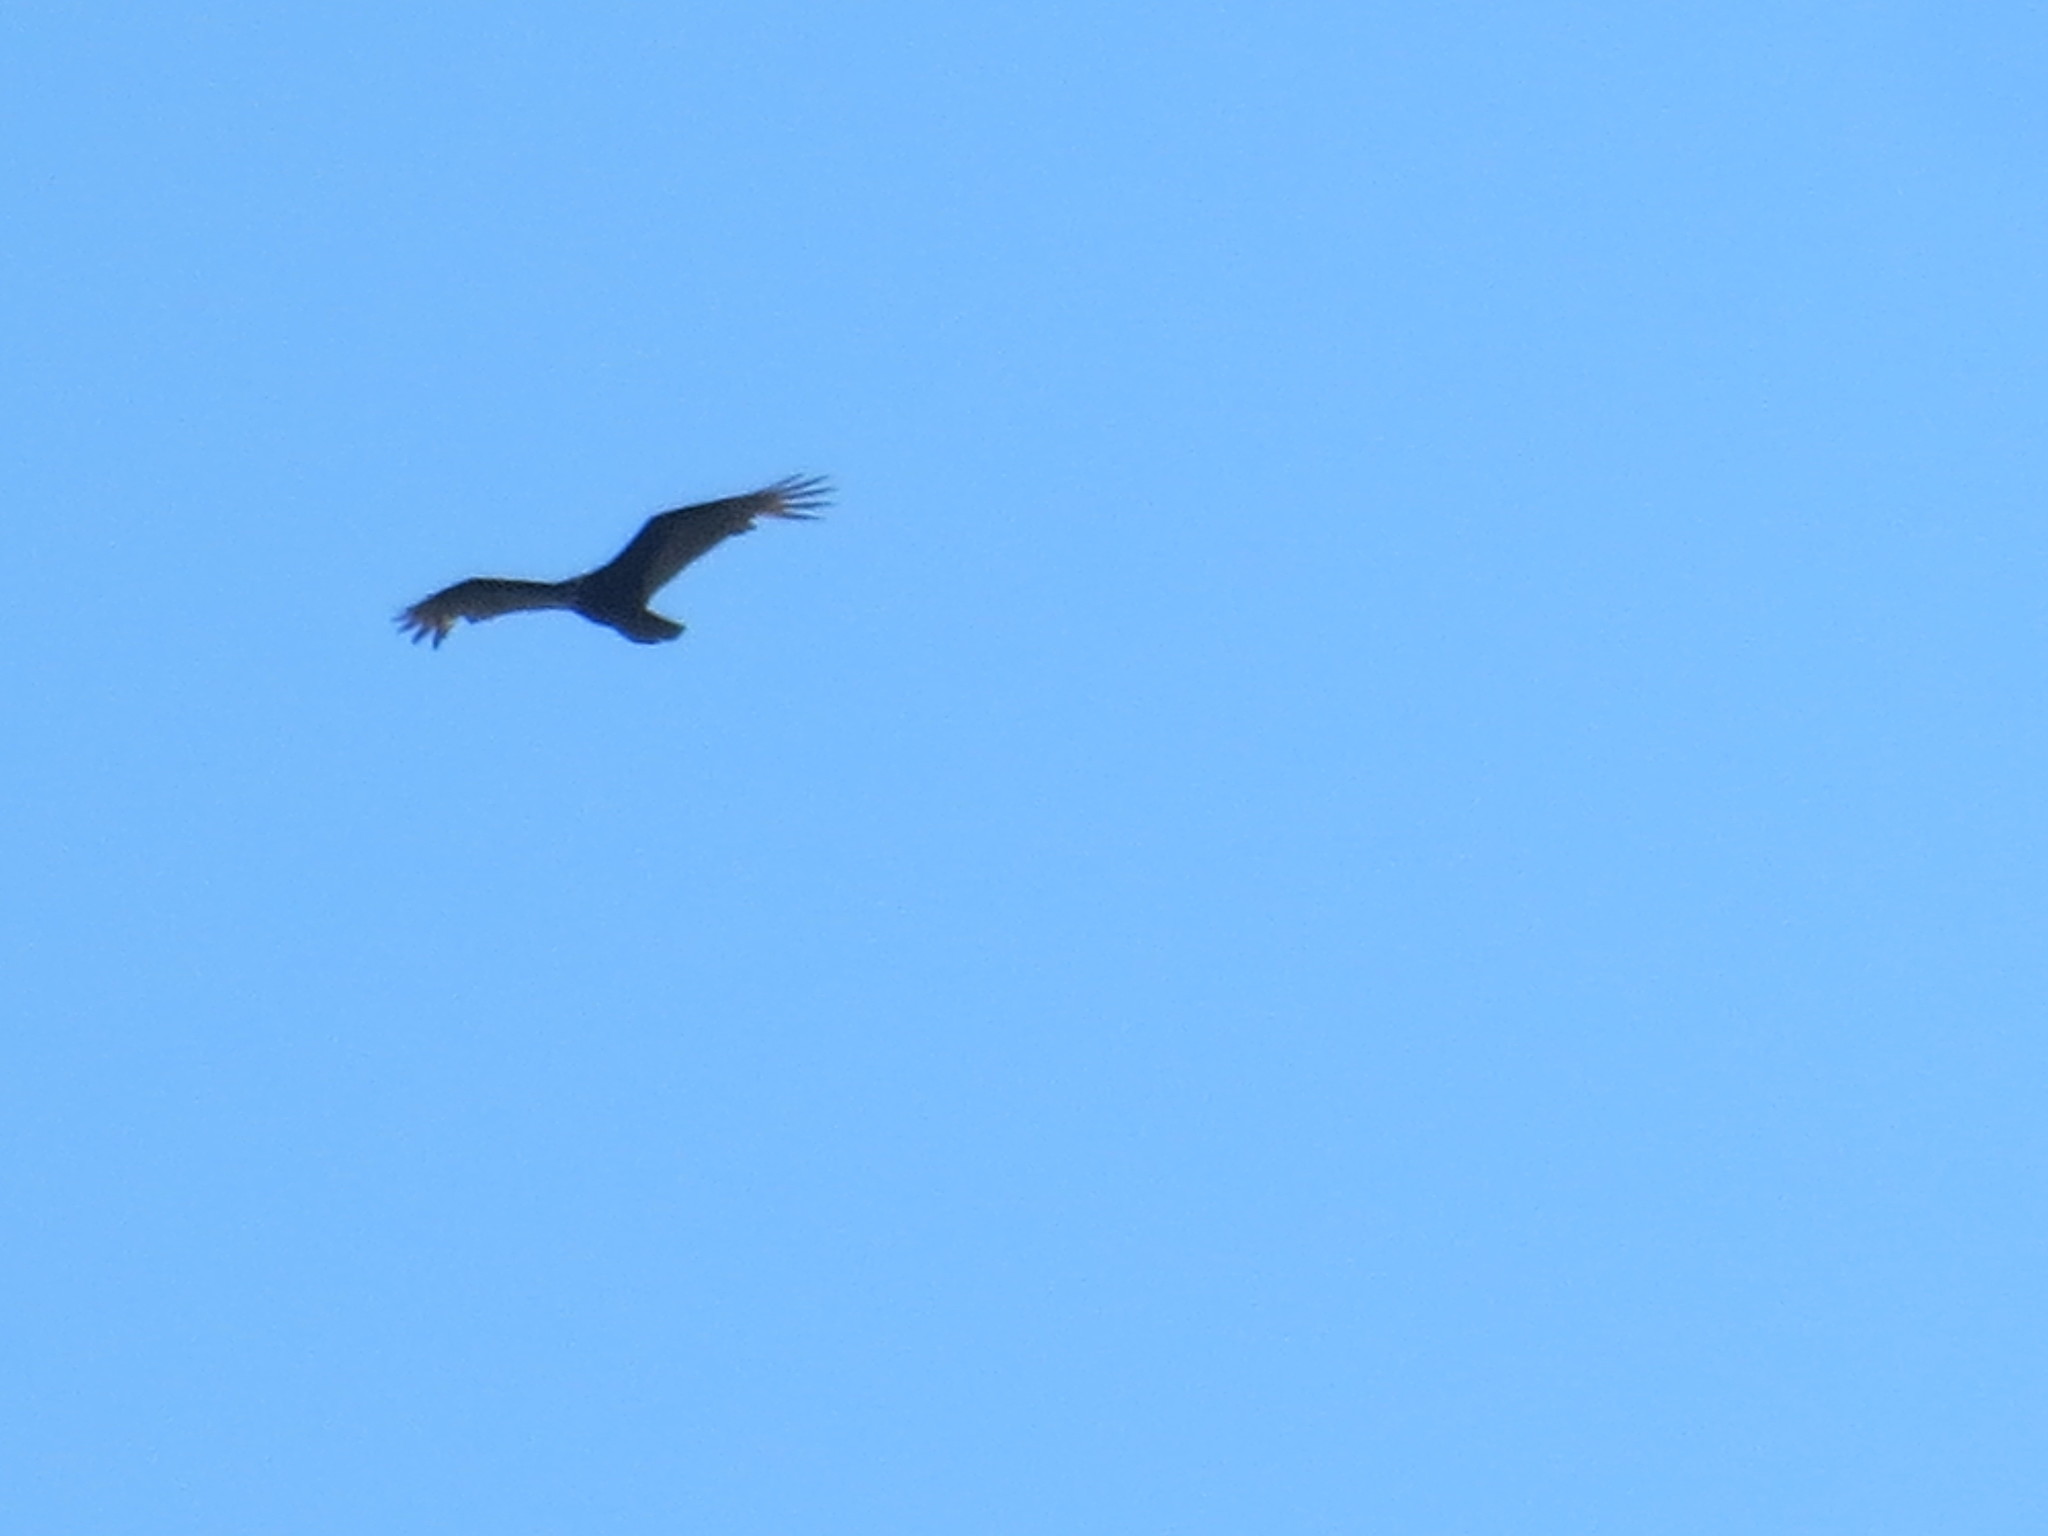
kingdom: Animalia
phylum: Chordata
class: Aves
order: Accipitriformes
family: Cathartidae
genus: Cathartes
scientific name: Cathartes aura
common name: Turkey vulture
